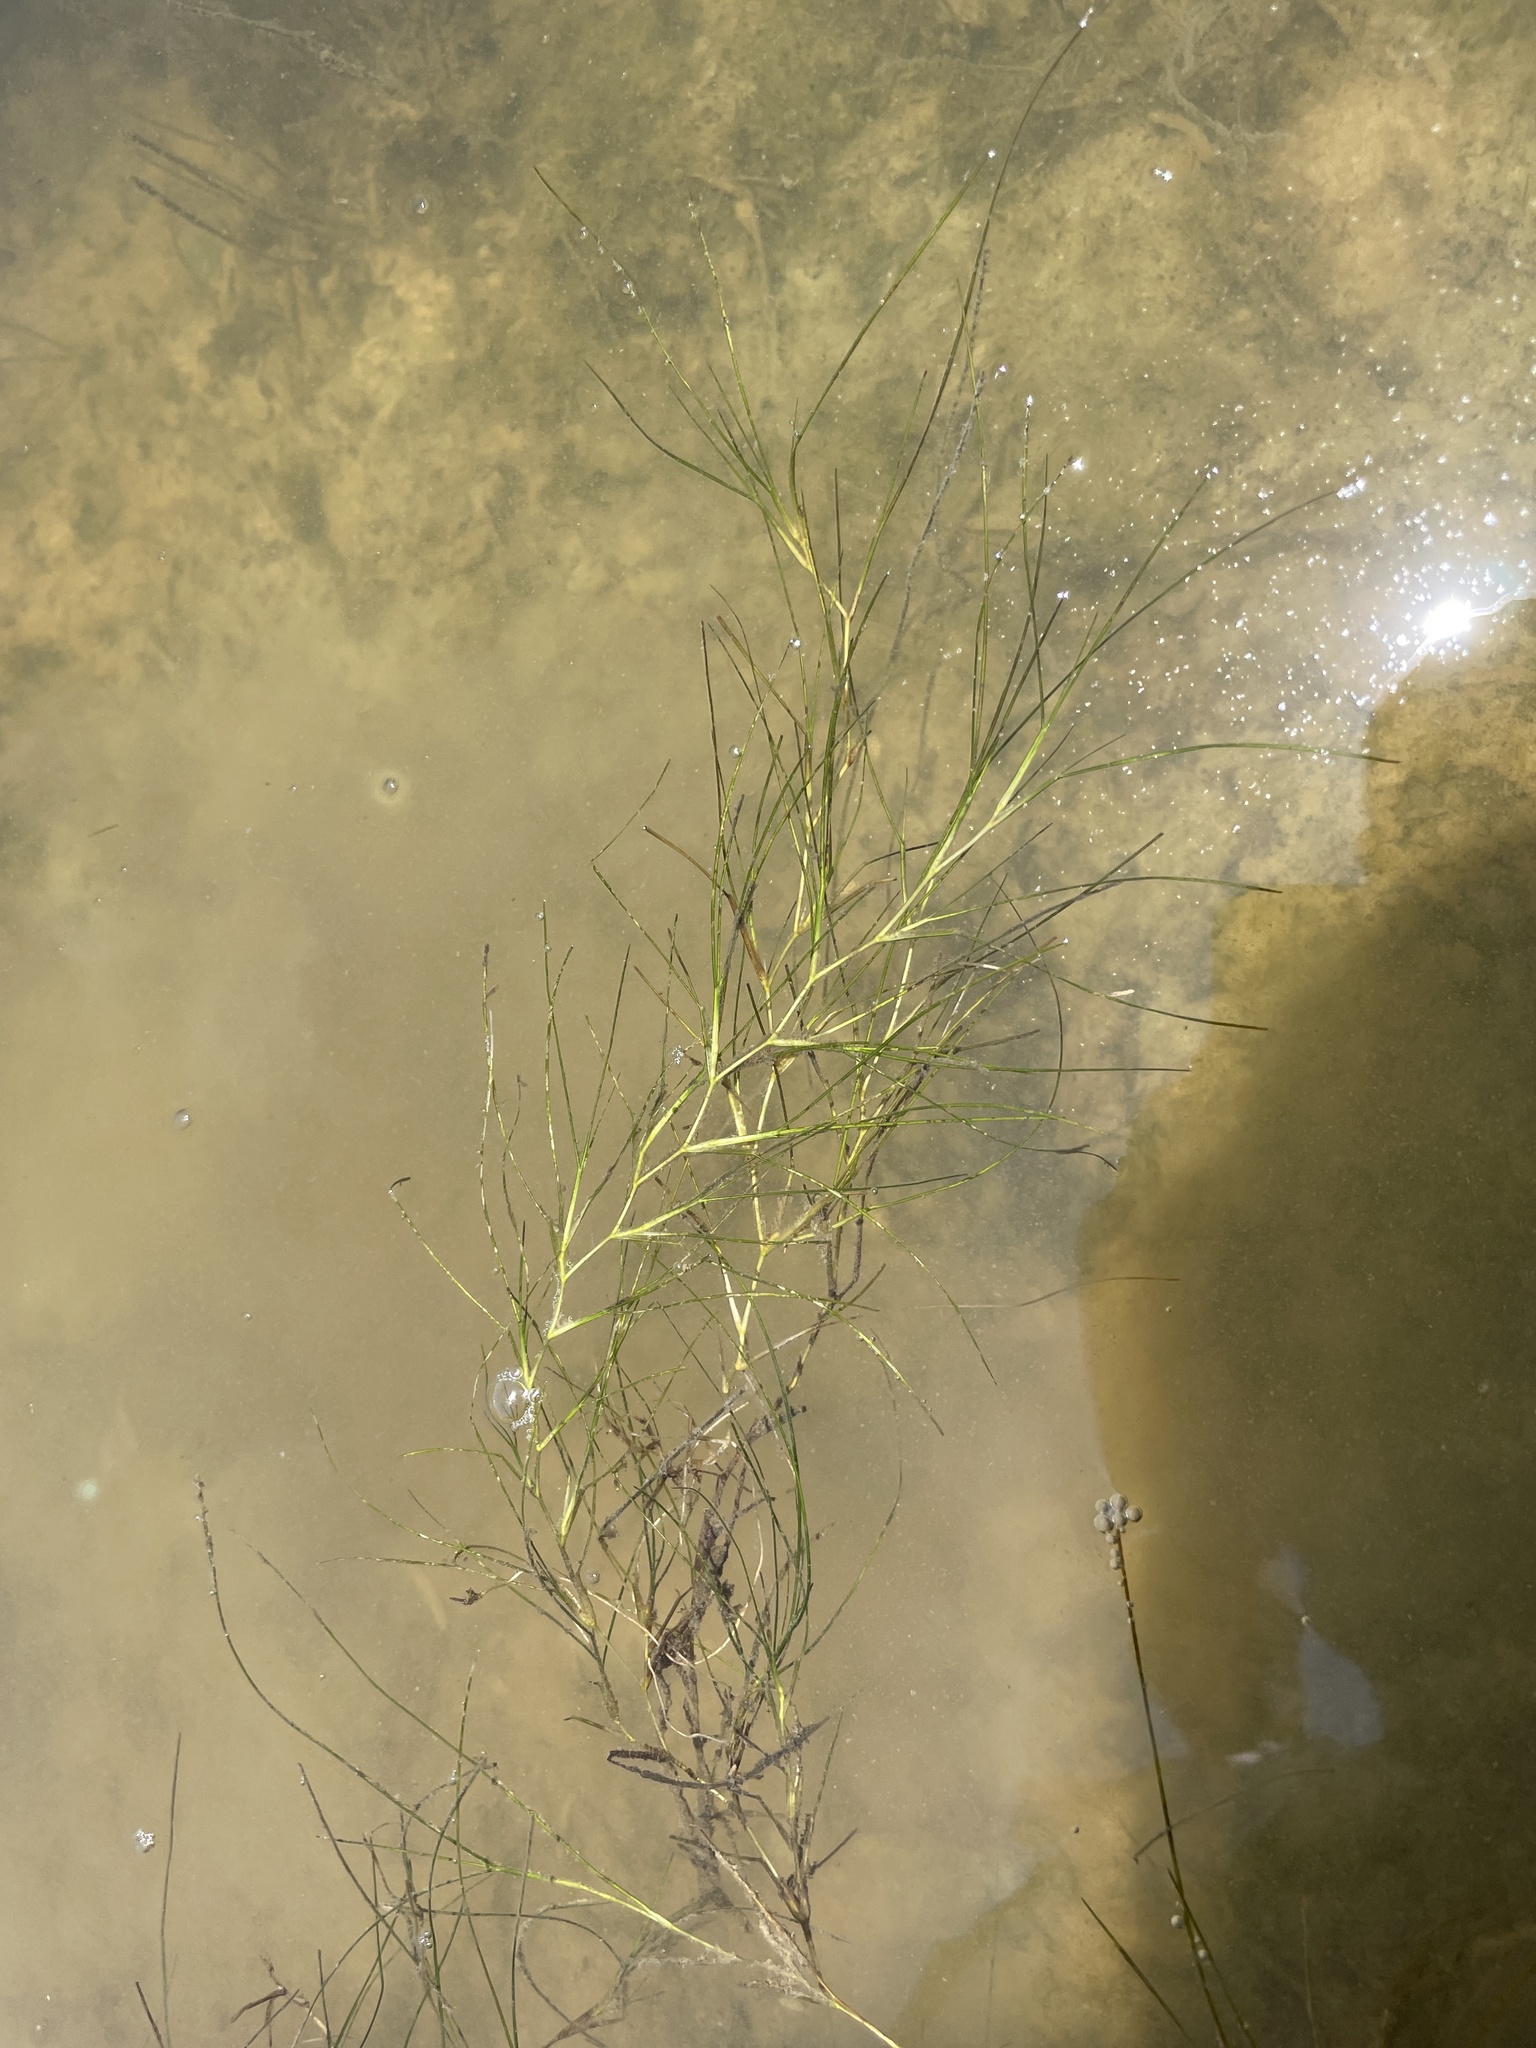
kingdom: Plantae
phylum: Tracheophyta
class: Liliopsida
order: Alismatales
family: Ruppiaceae
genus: Ruppia
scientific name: Ruppia maritima
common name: Beaked tasselweed
